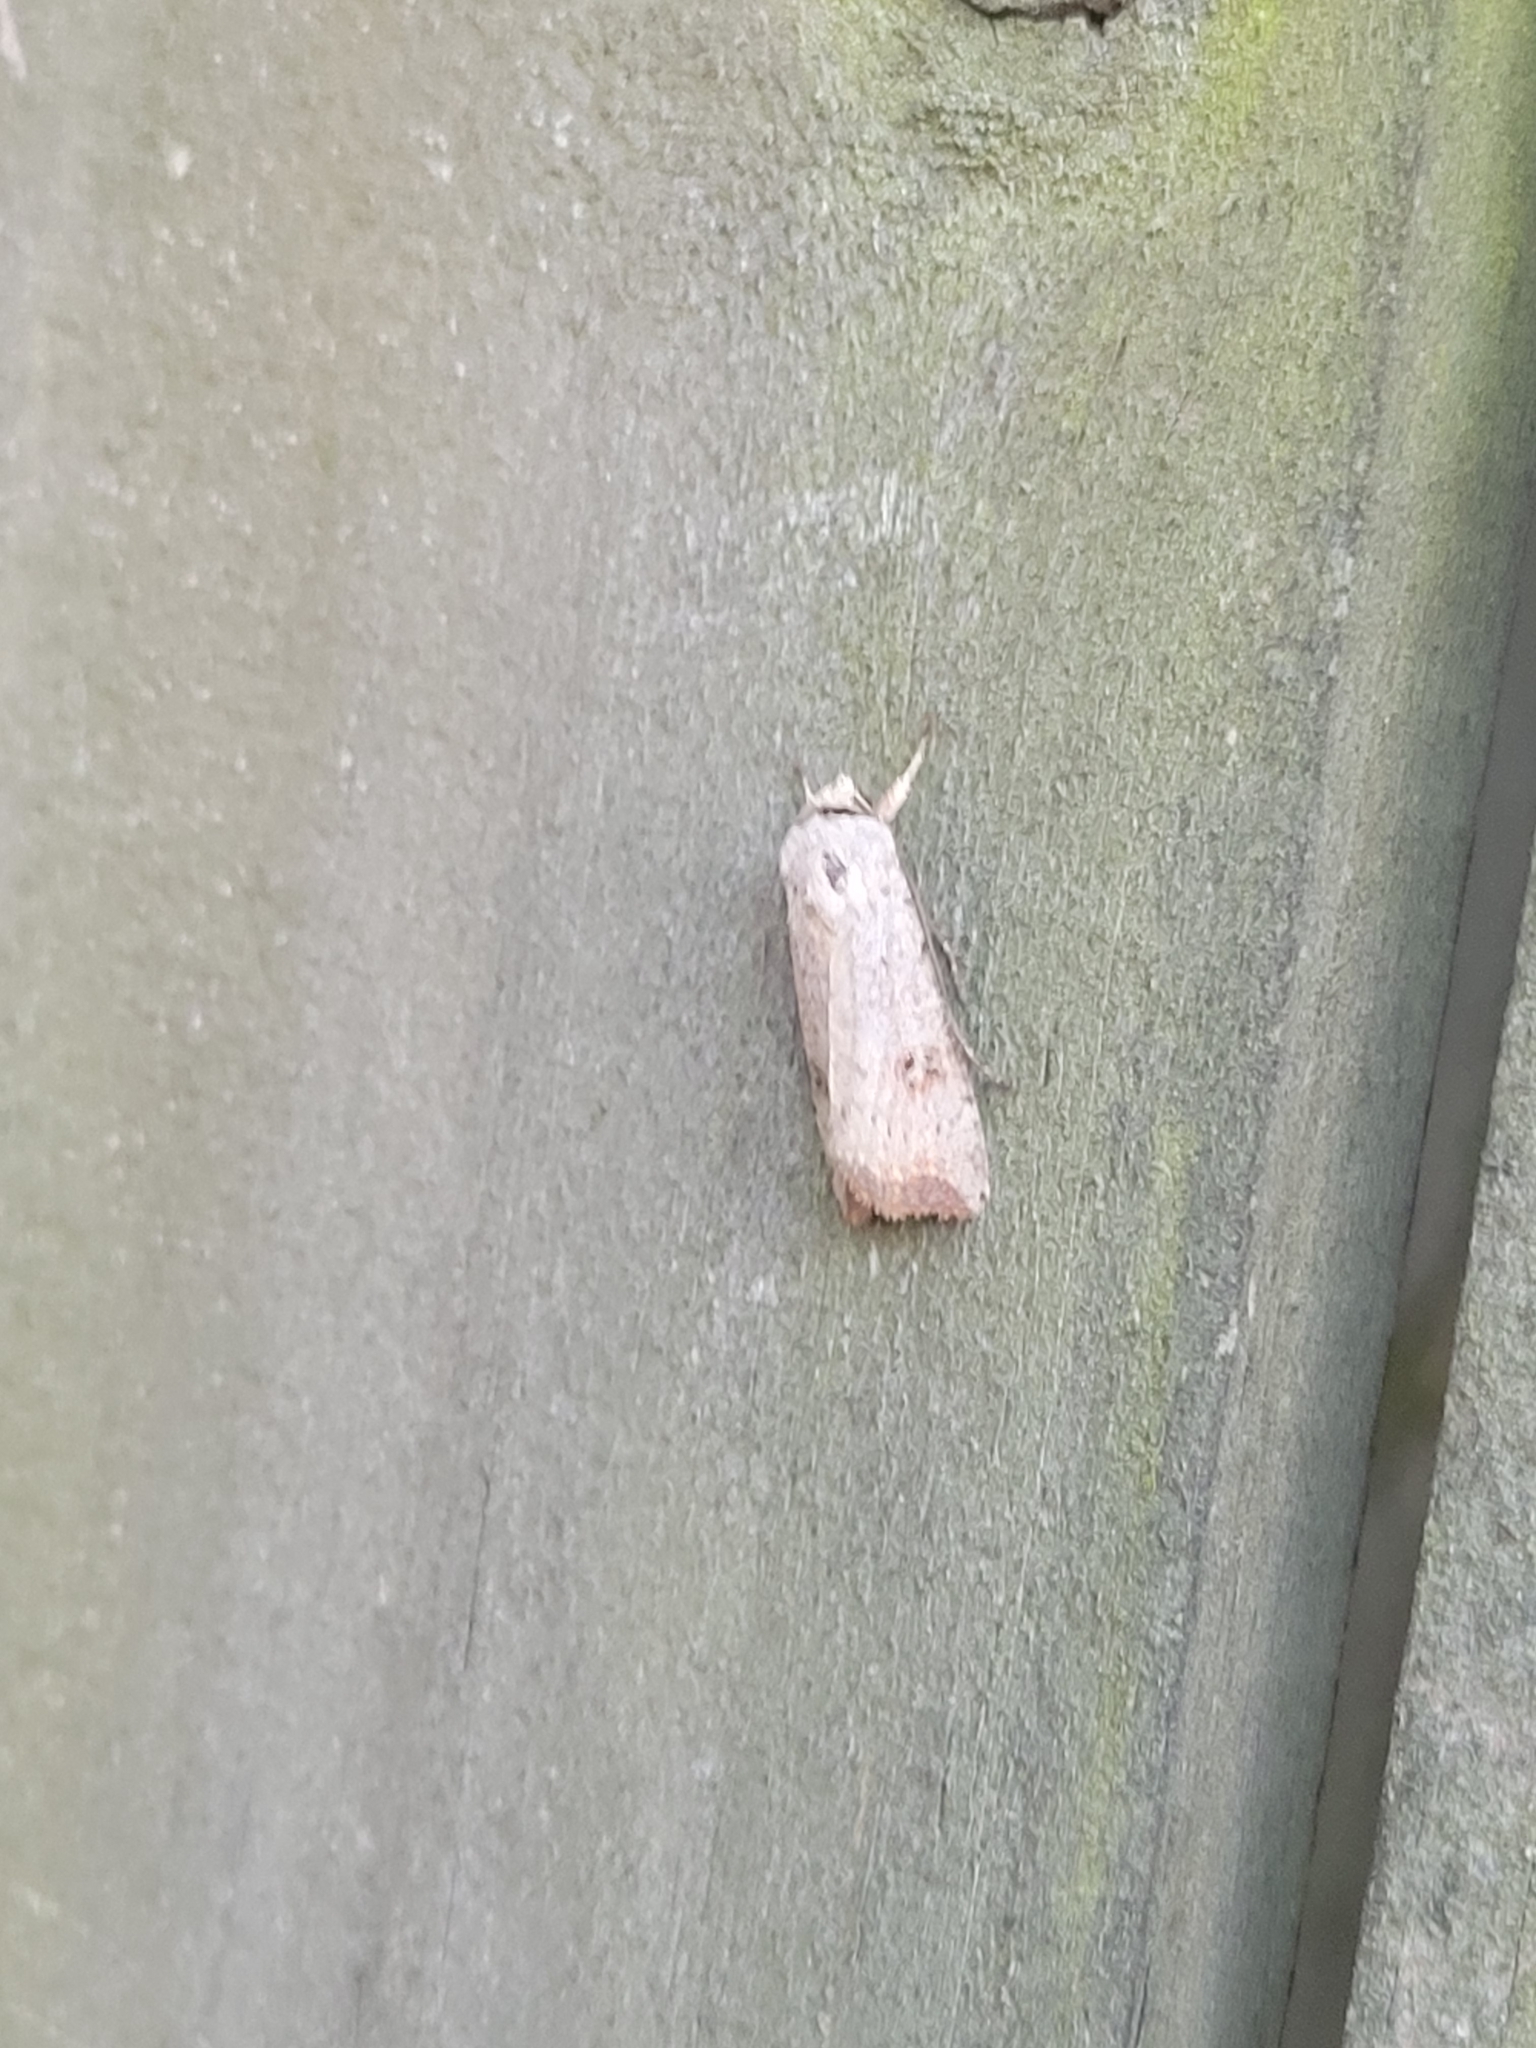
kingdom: Animalia
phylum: Arthropoda
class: Insecta
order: Lepidoptera
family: Noctuidae
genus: Anicla
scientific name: Anicla infecta
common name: Green cutworm
